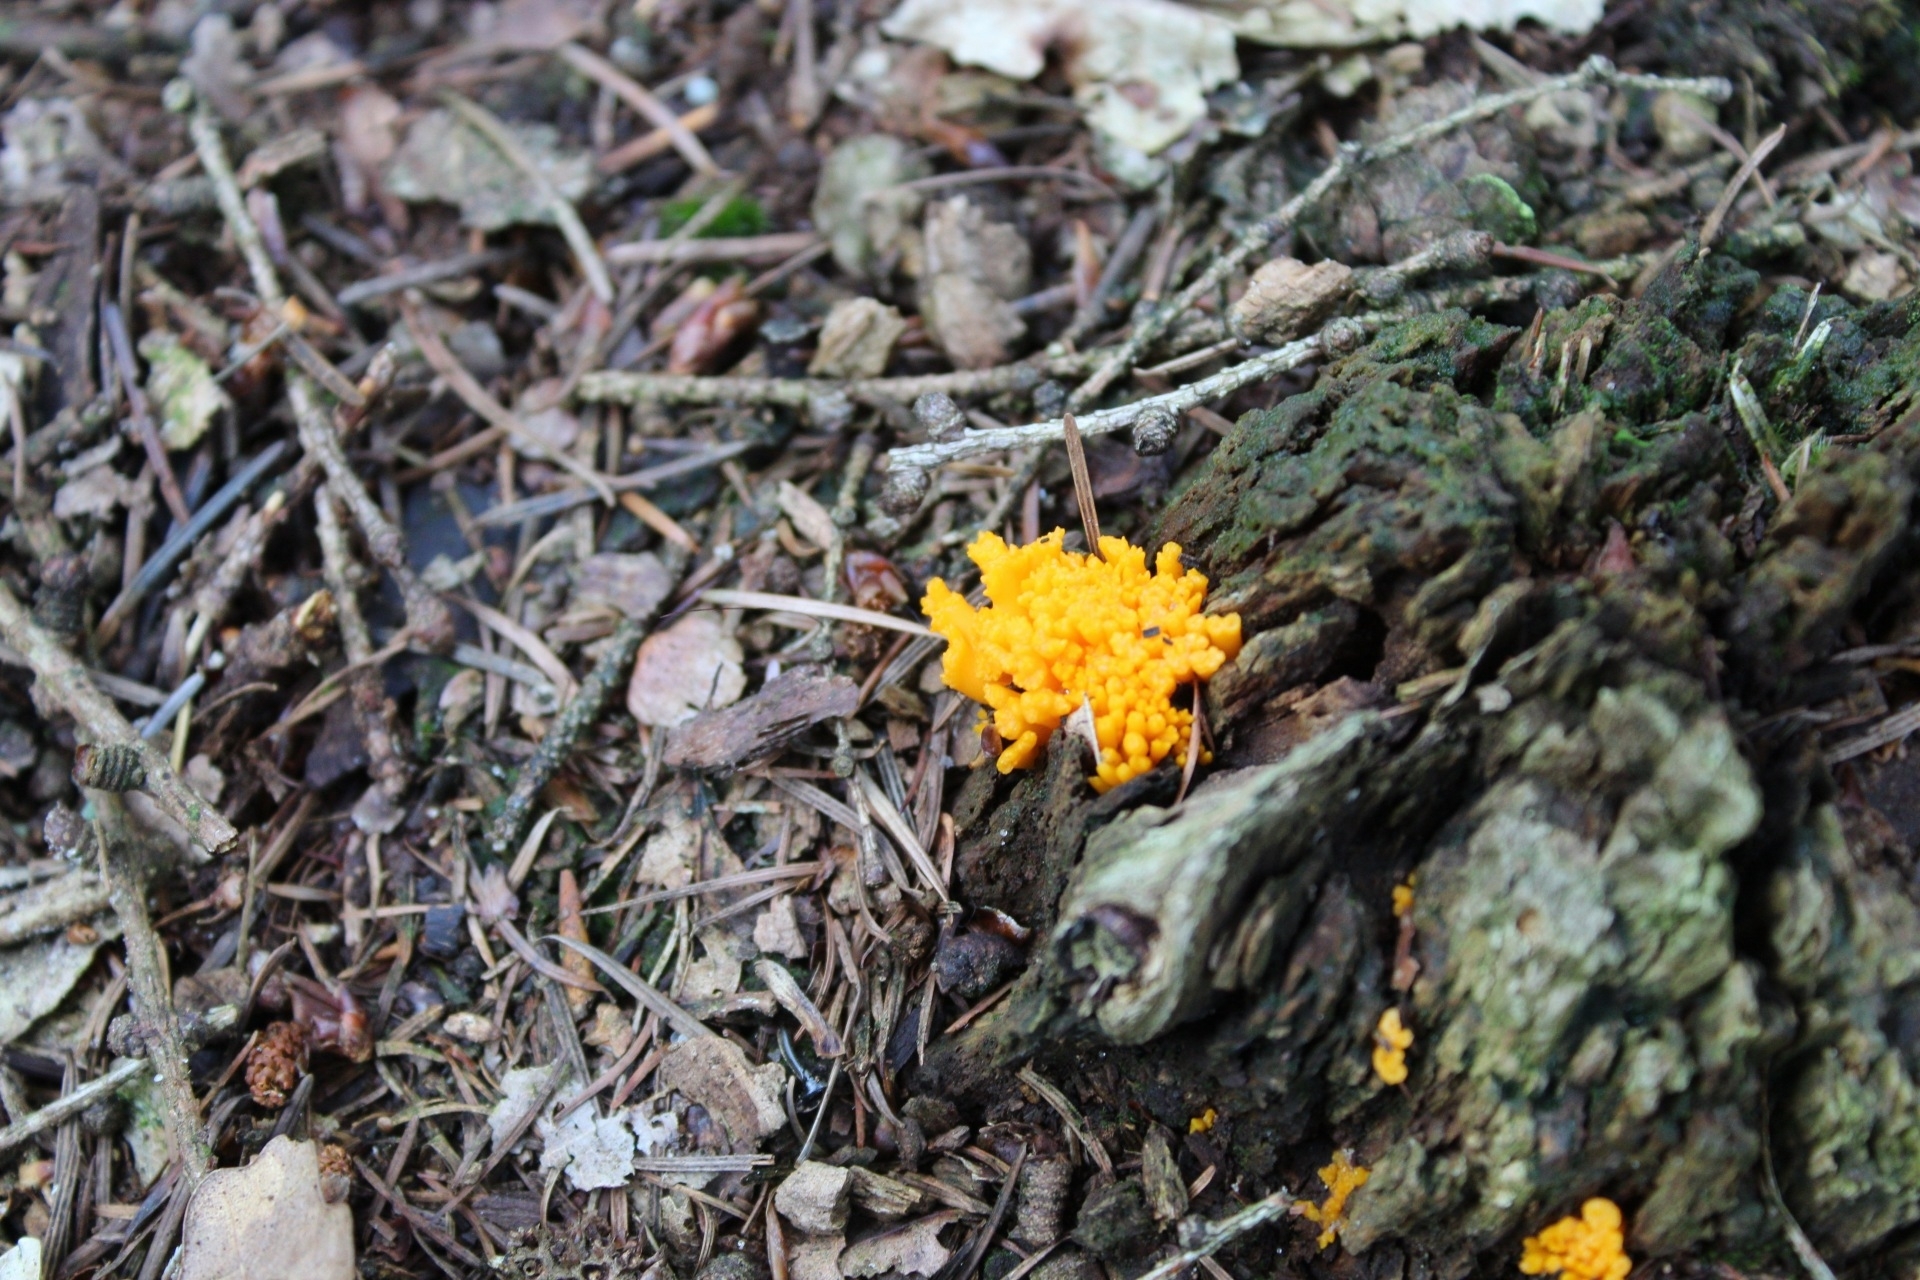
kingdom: Fungi
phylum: Basidiomycota
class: Dacrymycetes
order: Dacrymycetales
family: Dacrymycetaceae
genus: Calocera
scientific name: Calocera viscosa
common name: Yellow stagshorn
